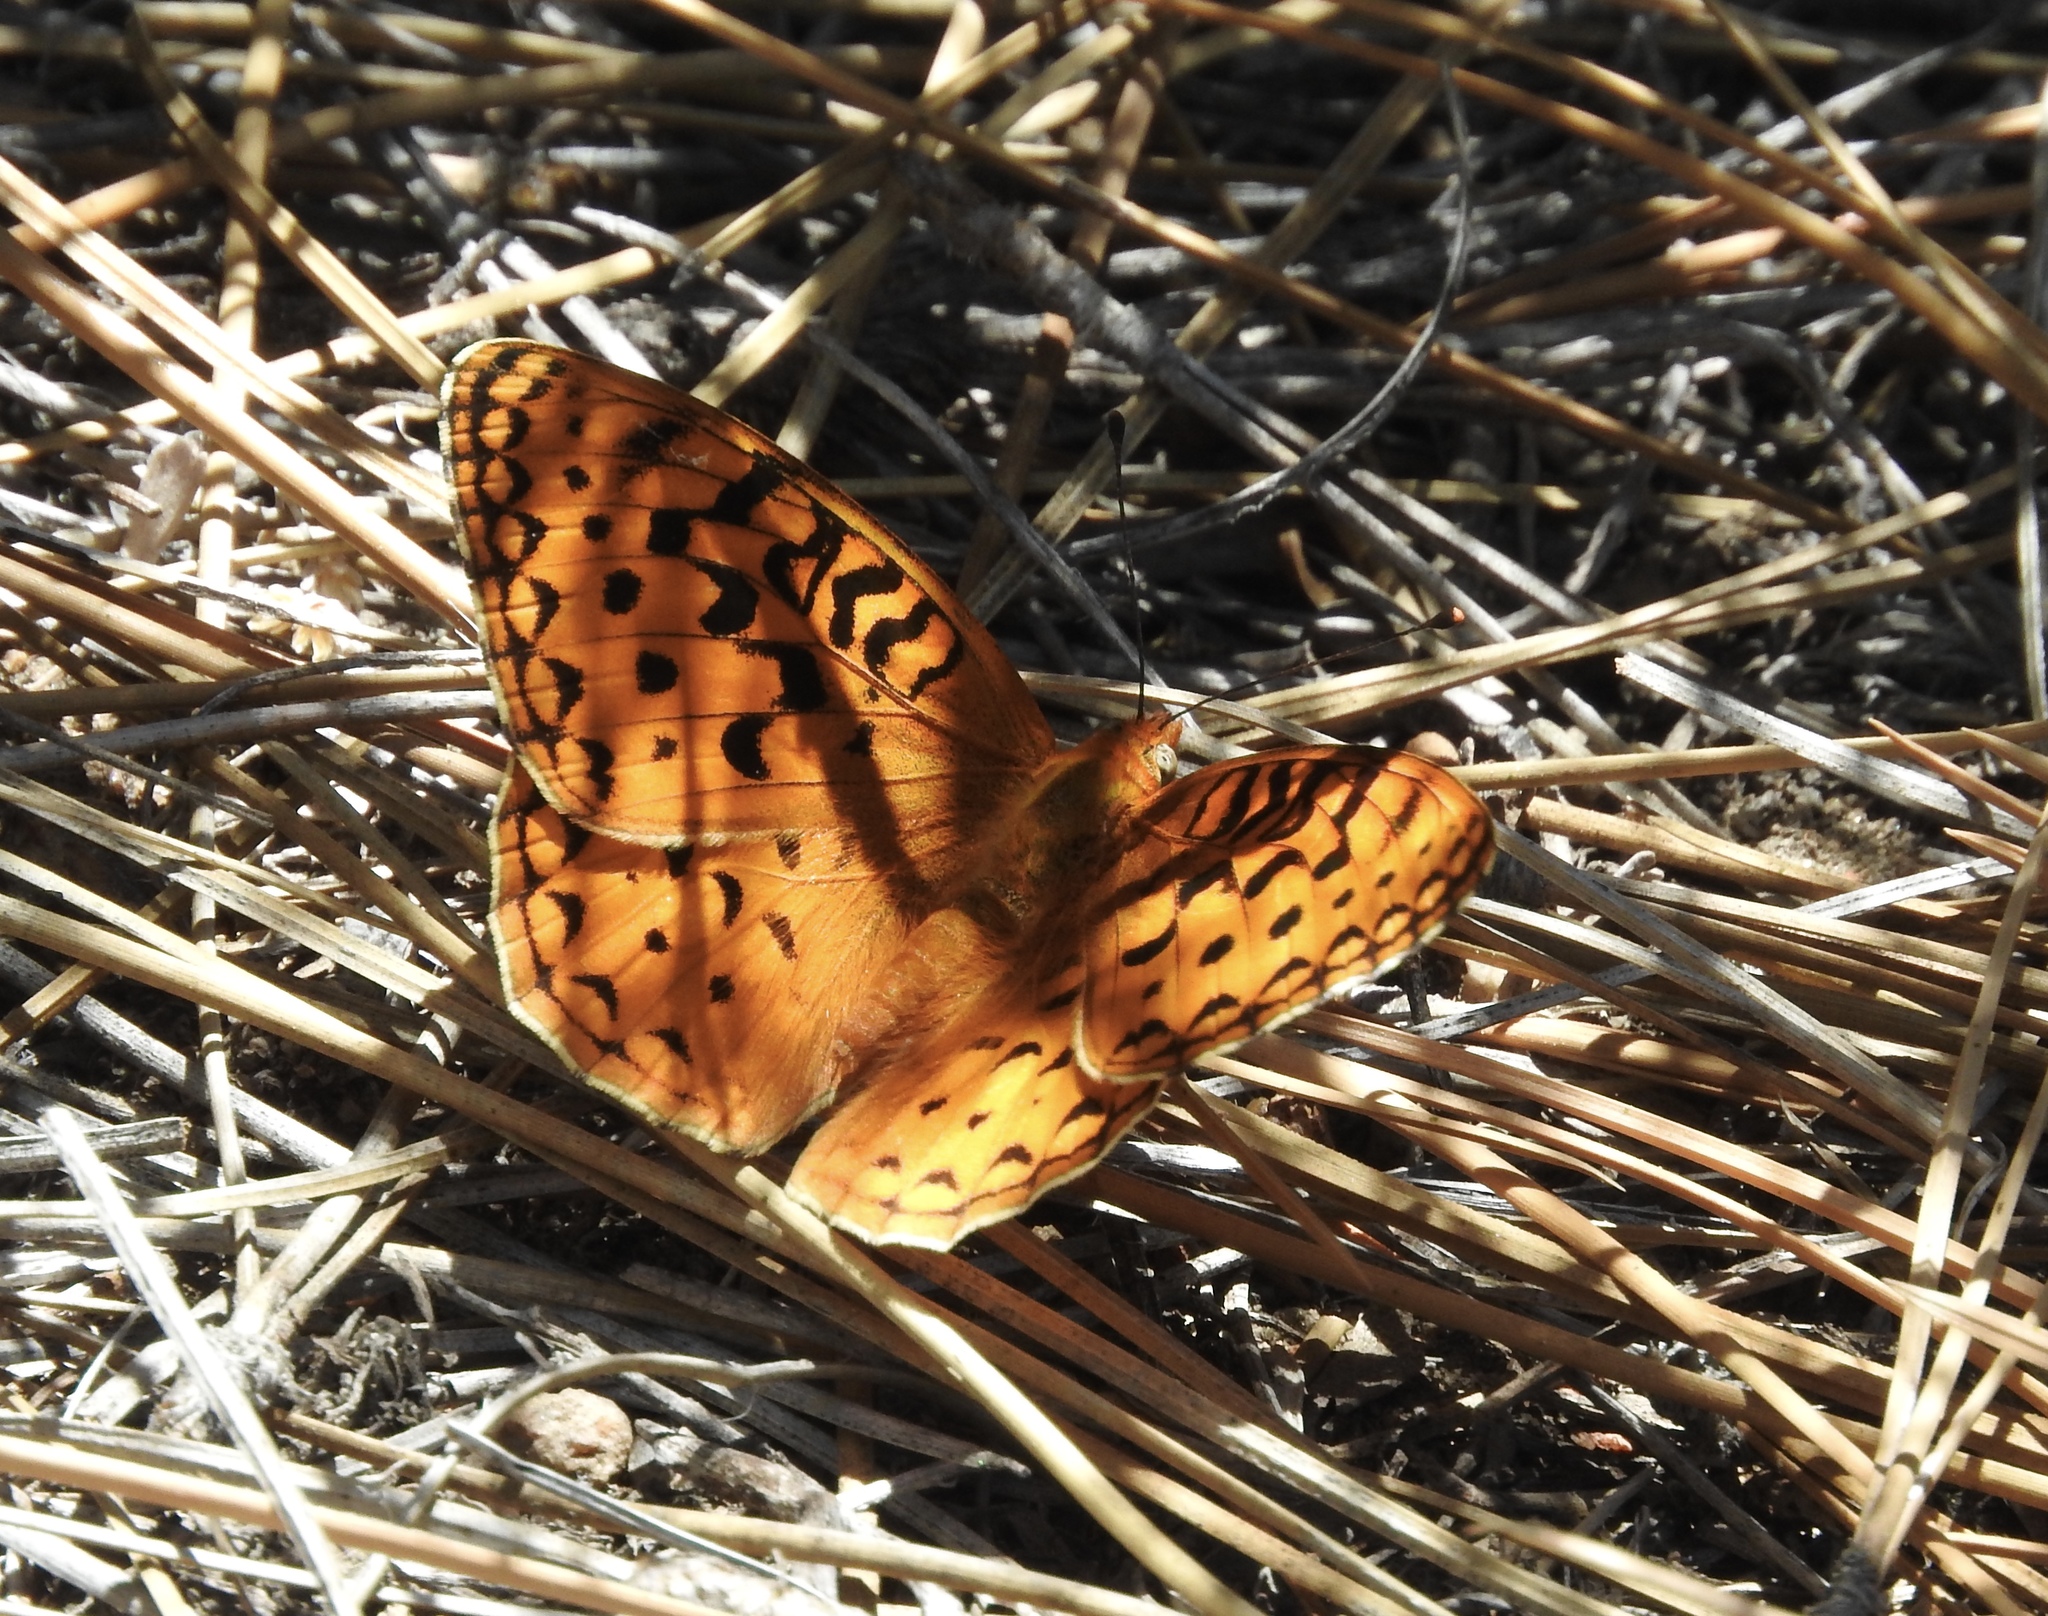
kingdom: Animalia
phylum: Arthropoda
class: Insecta
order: Lepidoptera
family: Nymphalidae
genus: Argynnis
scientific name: Argynnis coronis
